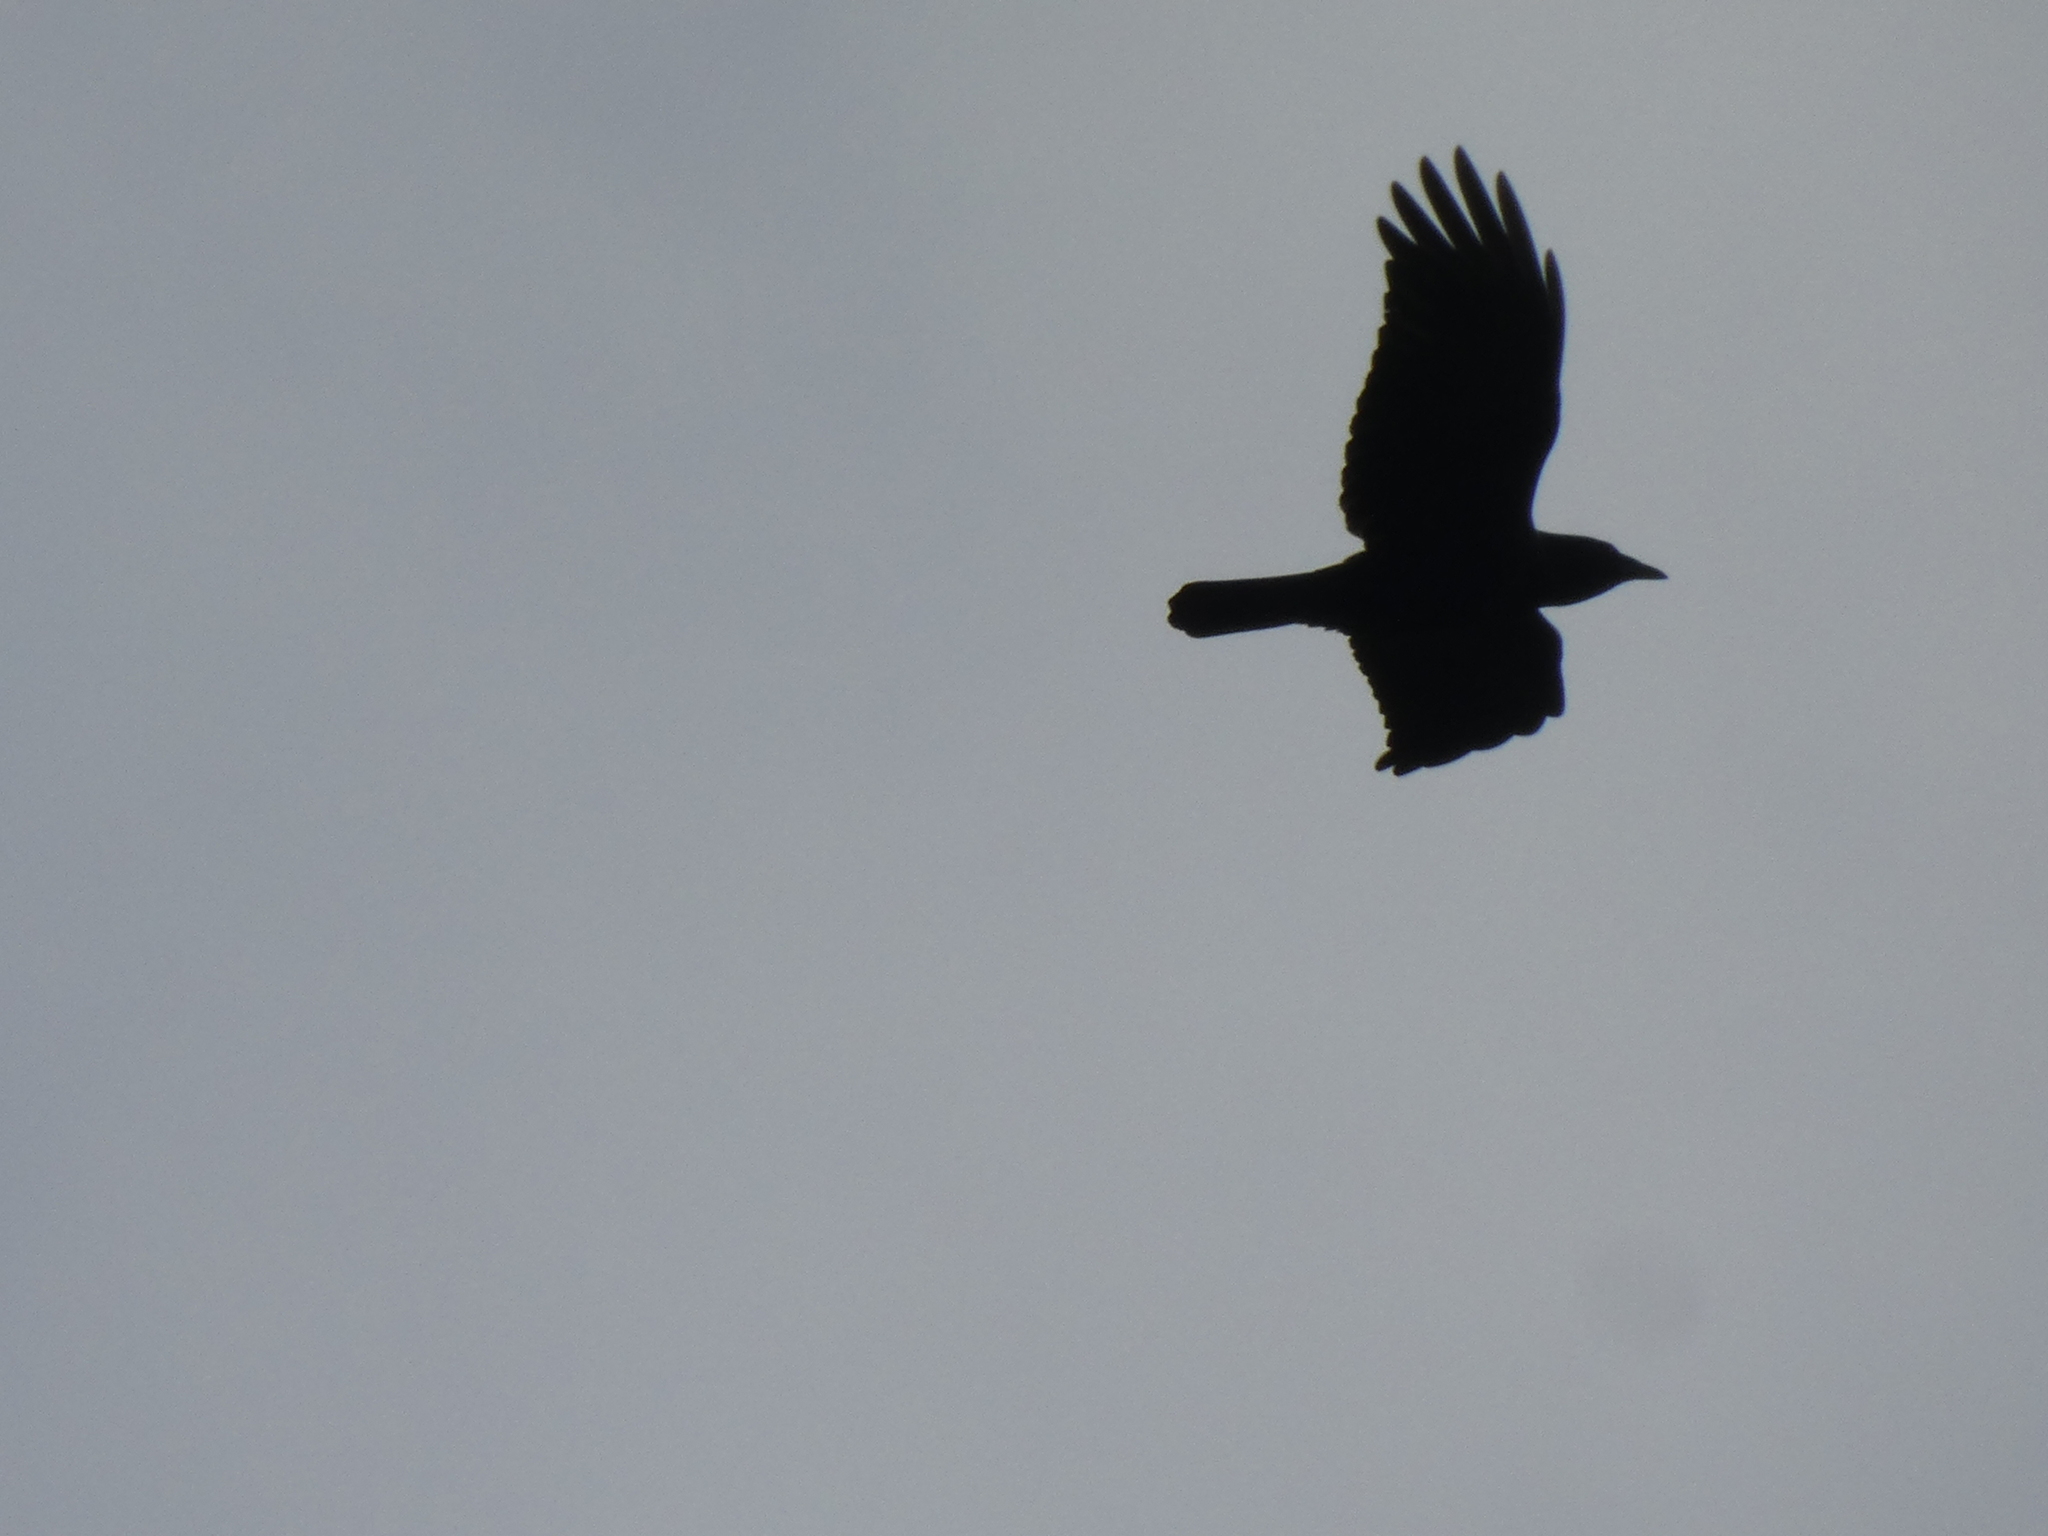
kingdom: Animalia
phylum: Chordata
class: Aves
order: Passeriformes
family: Corvidae
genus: Corvus
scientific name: Corvus brachyrhynchos
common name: American crow
